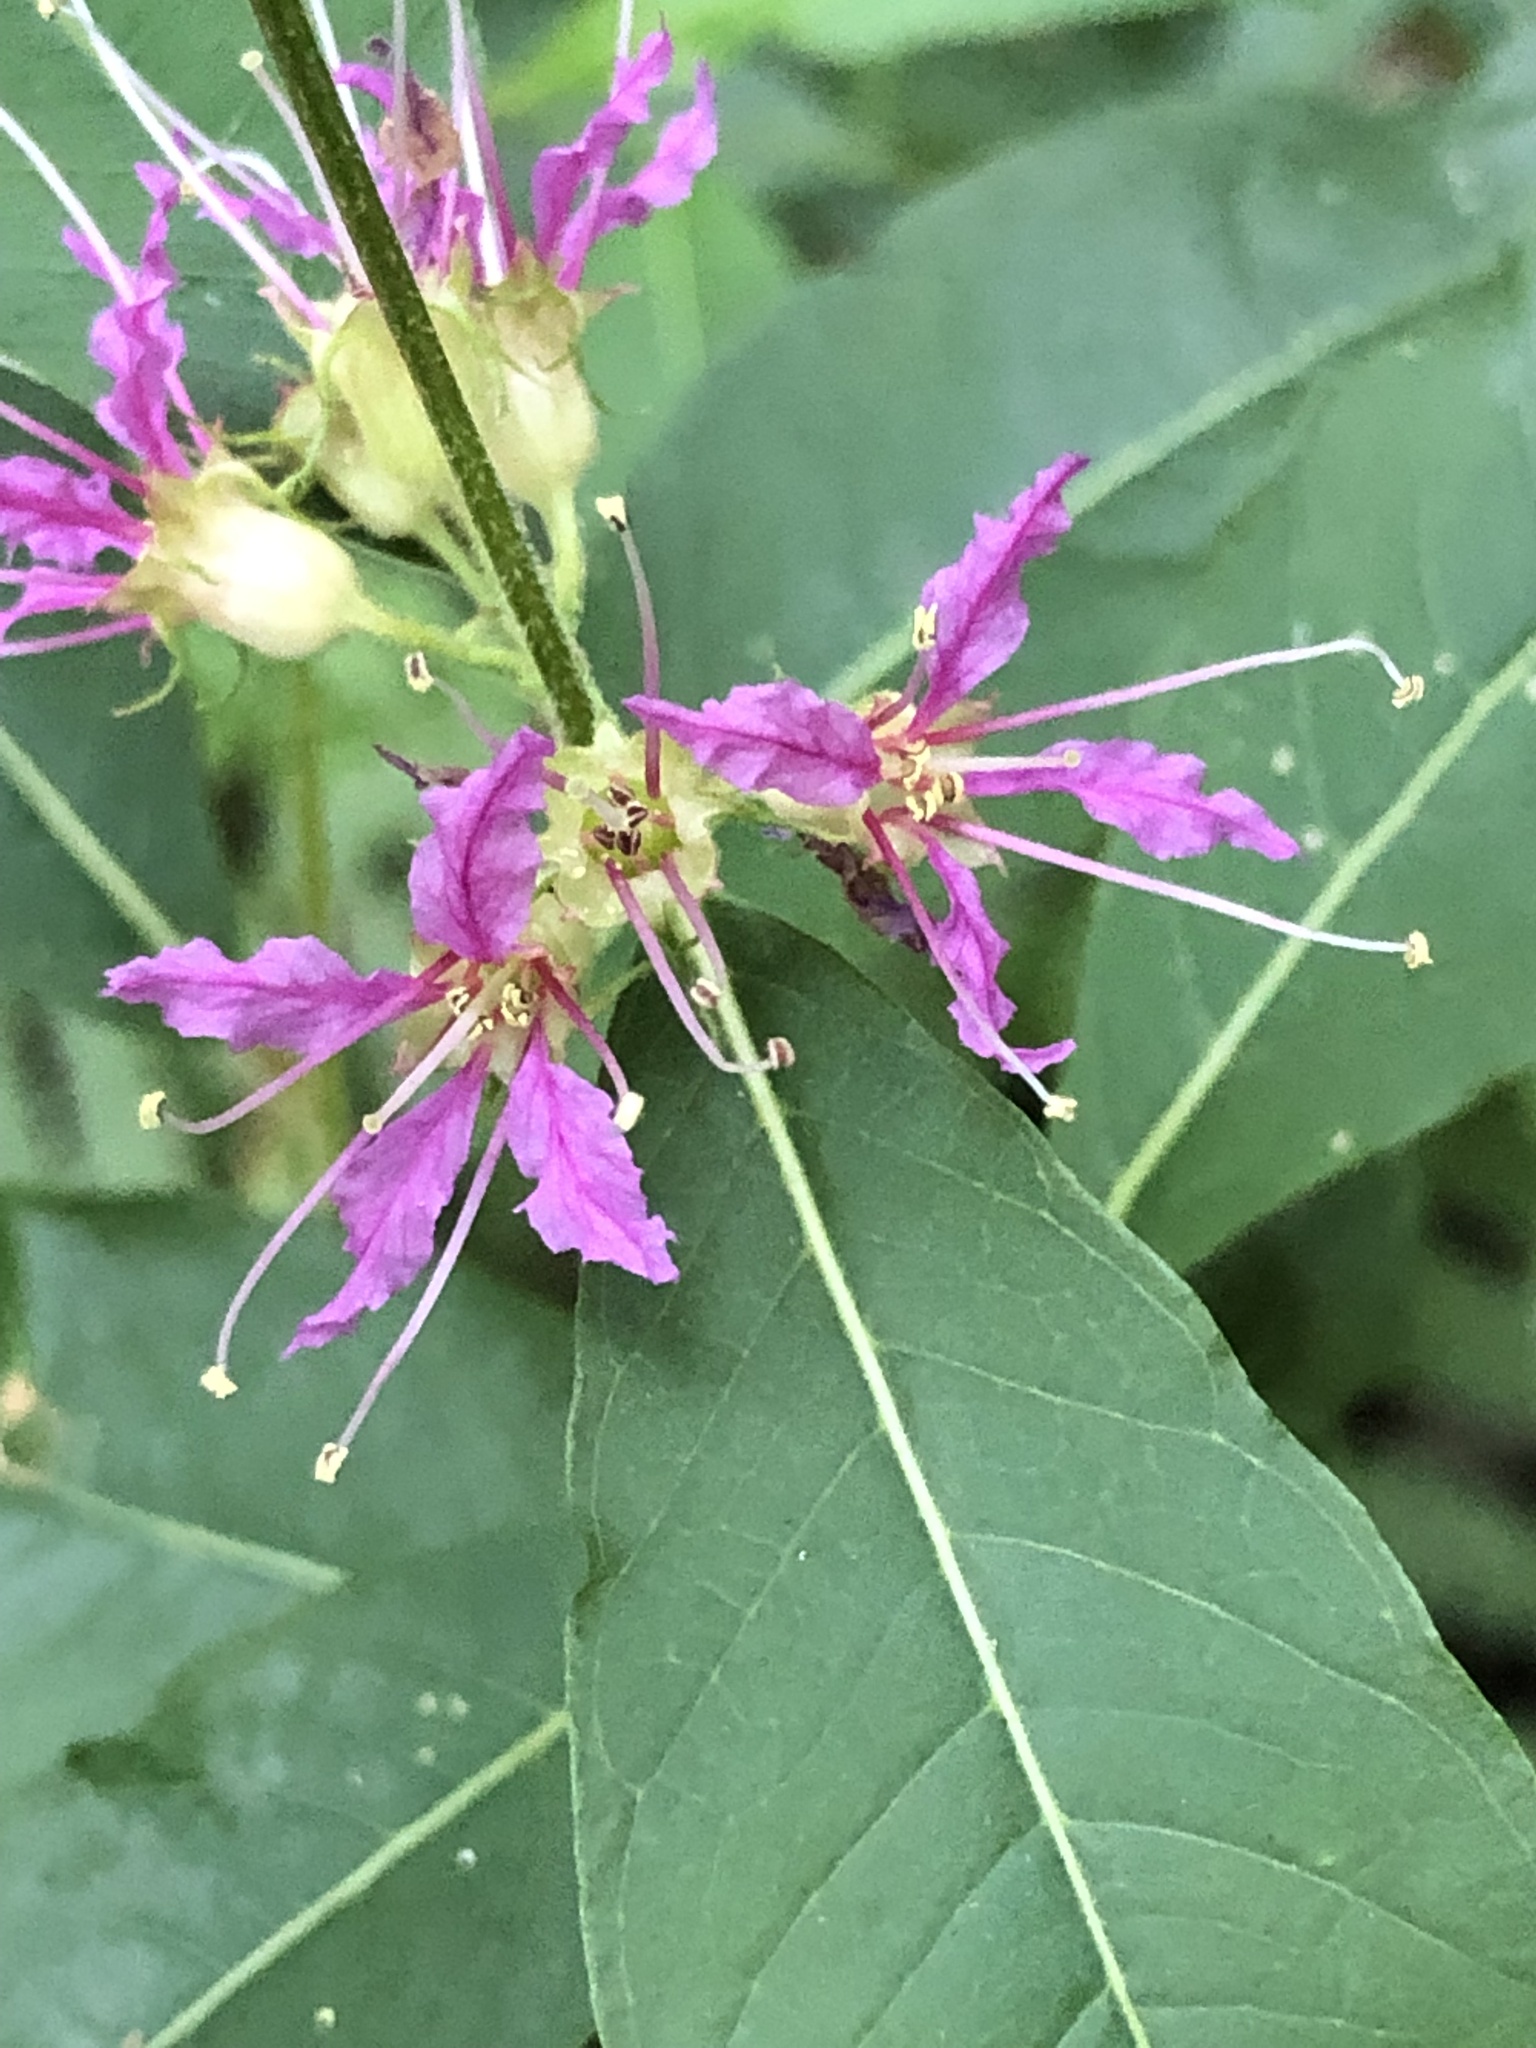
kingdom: Plantae
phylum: Tracheophyta
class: Magnoliopsida
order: Myrtales
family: Lythraceae
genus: Decodon
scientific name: Decodon verticillatus
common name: Hairy swamp loosestrife
